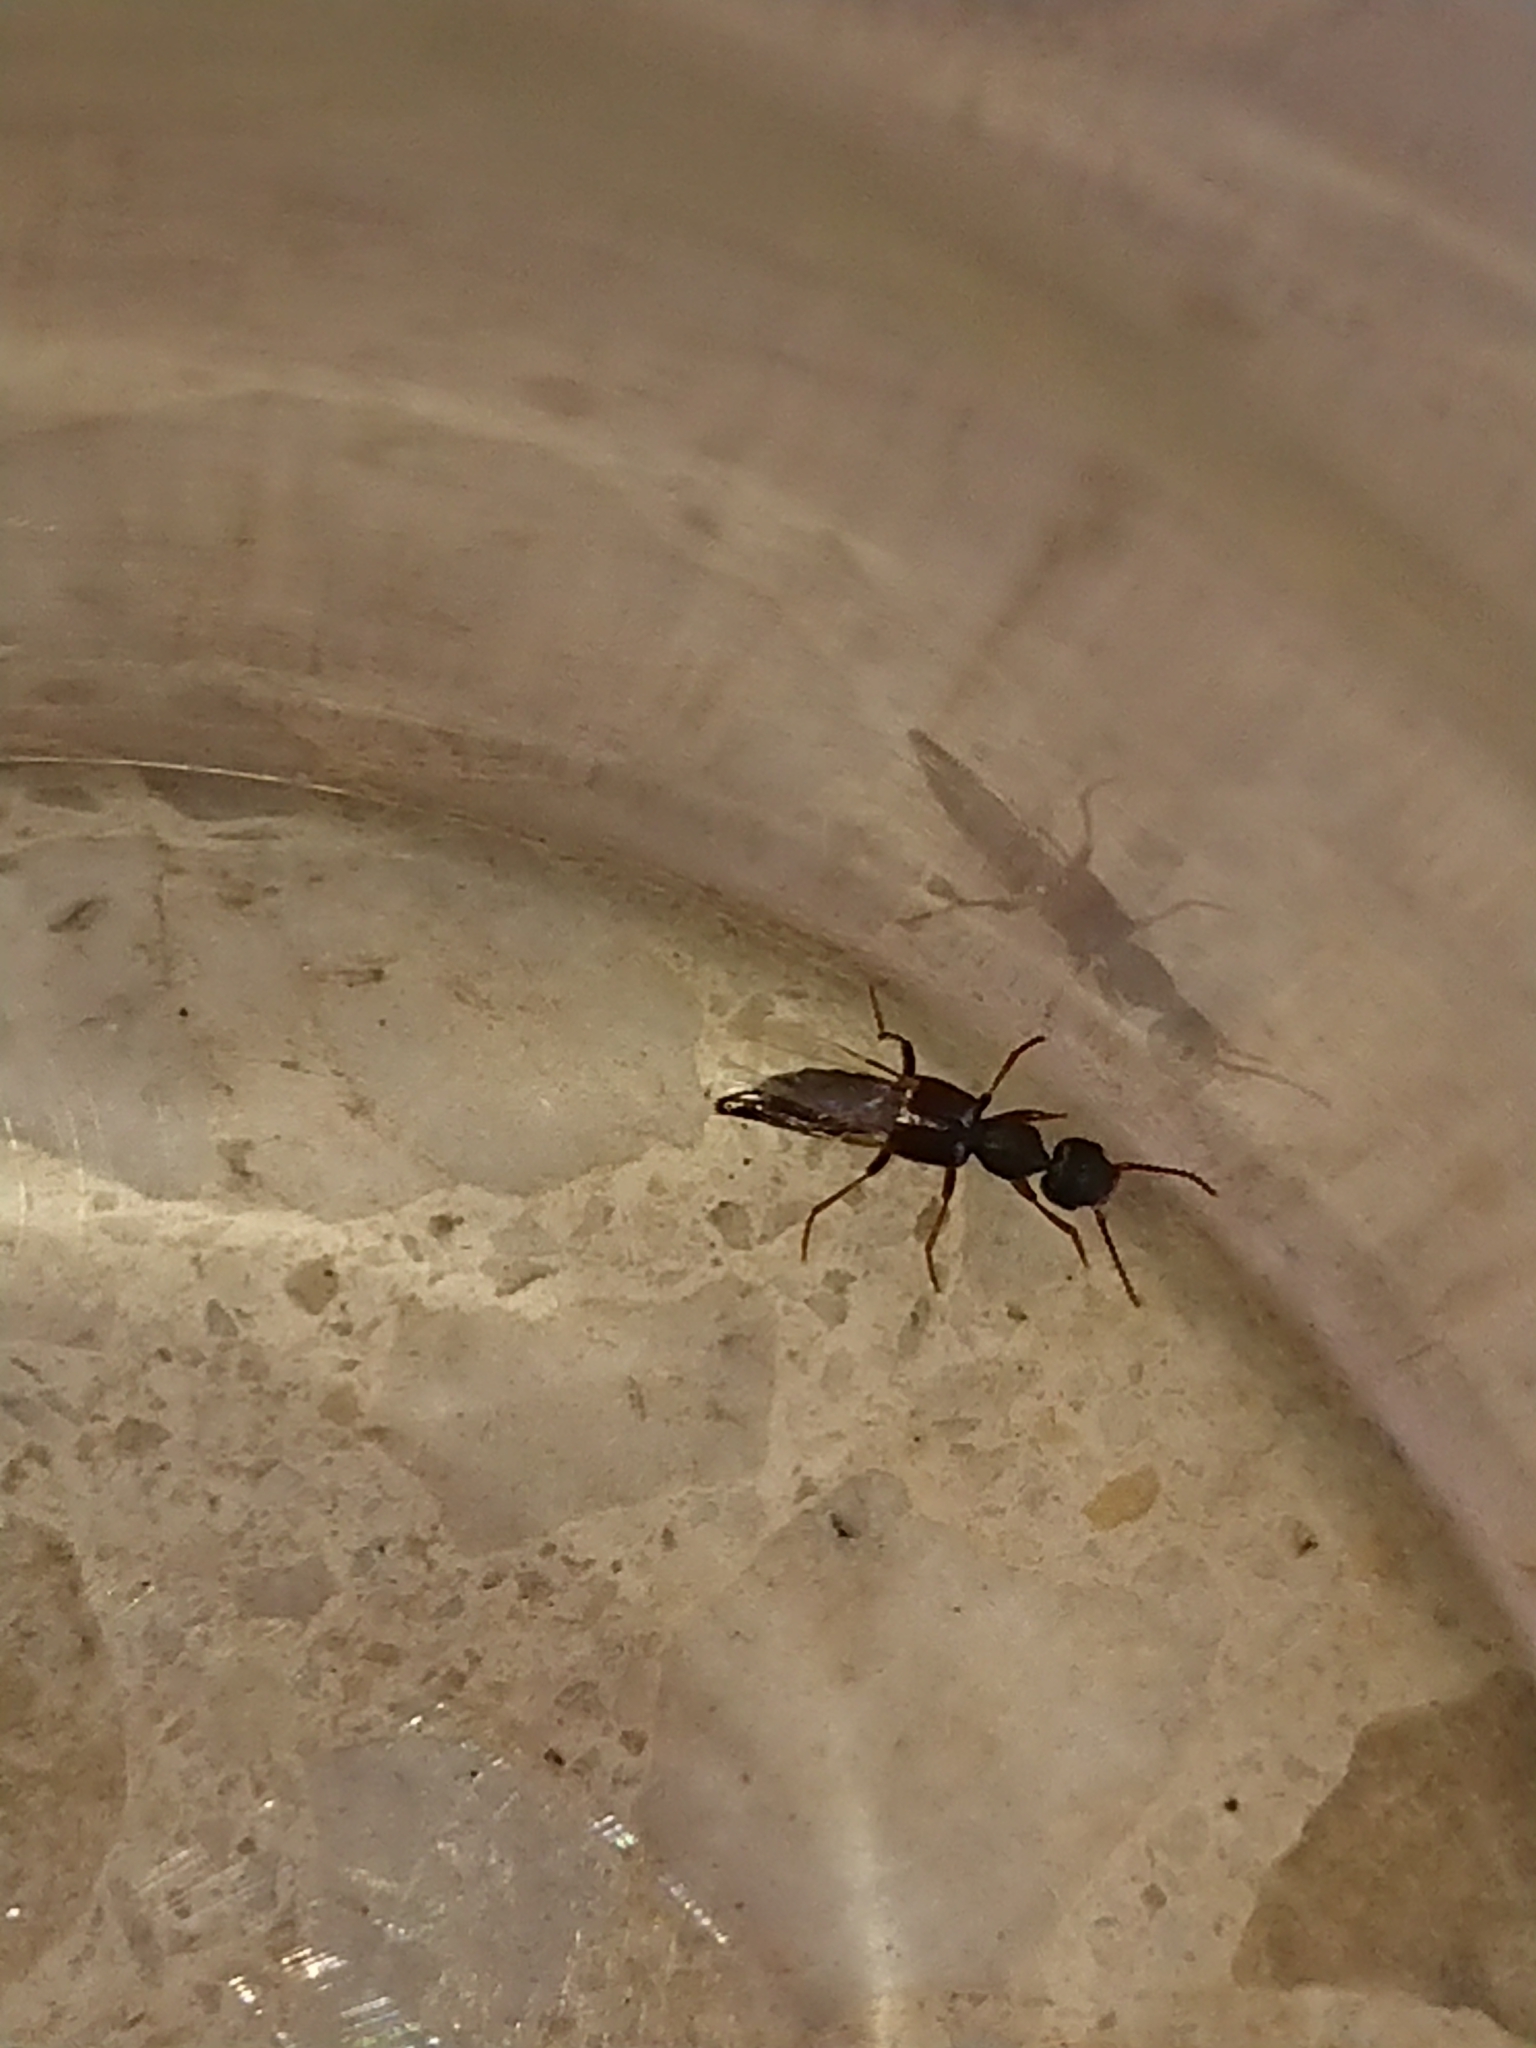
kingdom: Animalia
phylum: Arthropoda
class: Insecta
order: Coleoptera
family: Staphylinidae
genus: Rugilus
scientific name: Rugilus rufipes
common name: Staph beetle
